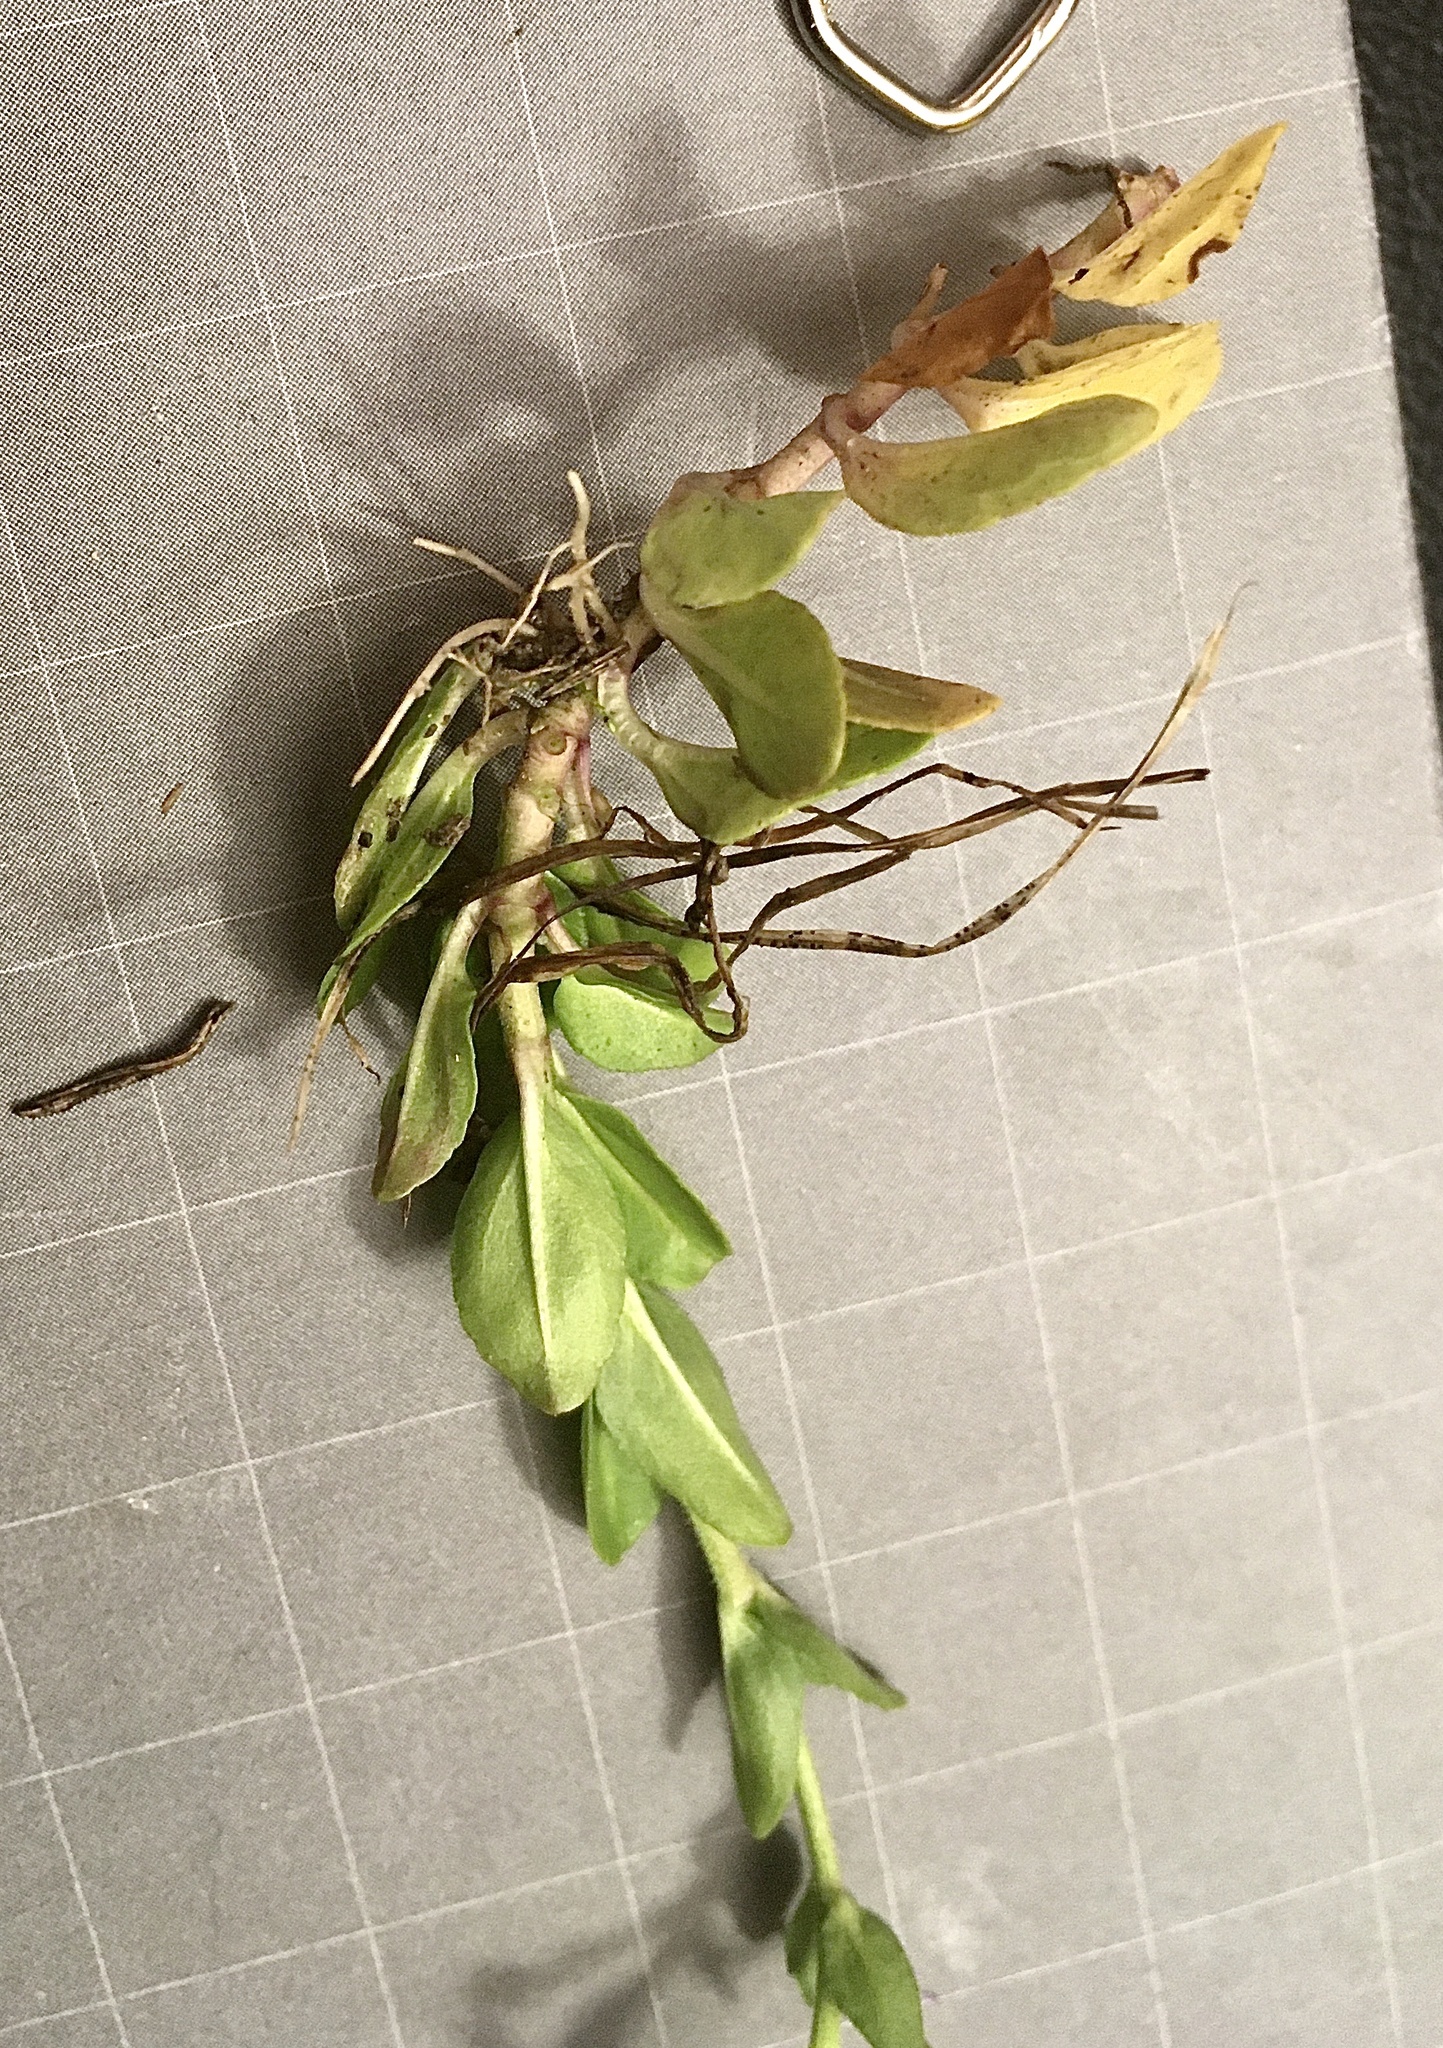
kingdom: Plantae
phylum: Tracheophyta
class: Magnoliopsida
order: Lamiales
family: Plantaginaceae
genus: Veronica
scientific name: Veronica serpyllifolia
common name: Thyme-leaved speedwell
